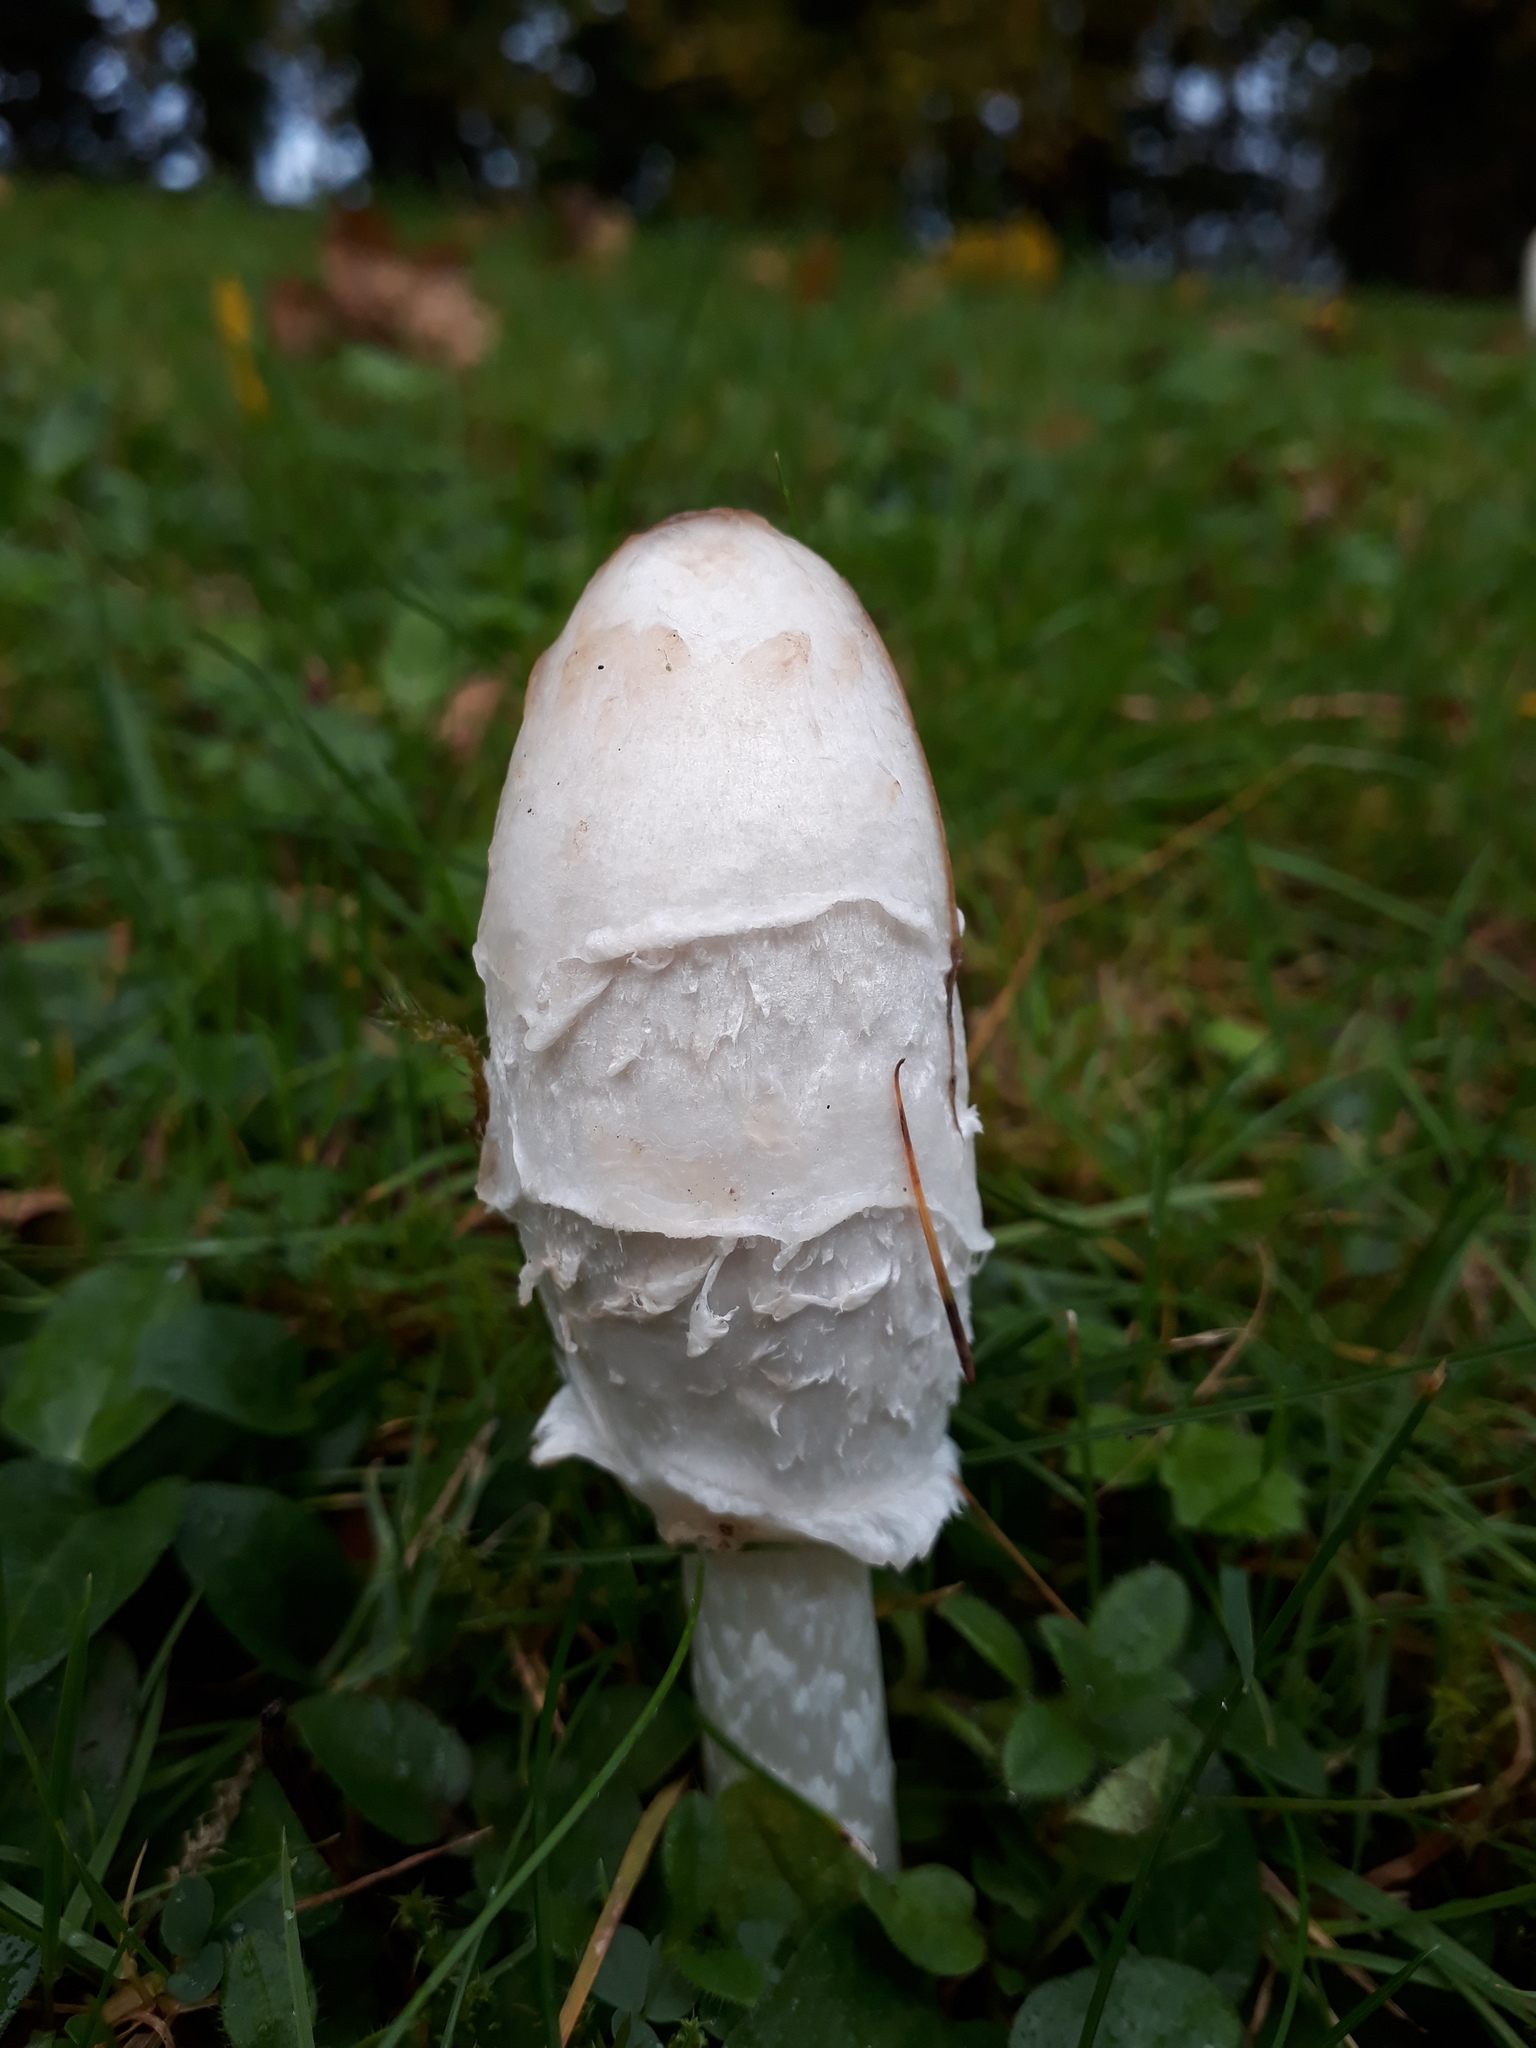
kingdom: Fungi
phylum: Basidiomycota
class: Agaricomycetes
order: Agaricales
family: Agaricaceae
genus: Coprinus
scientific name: Coprinus comatus
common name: Lawyer's wig
